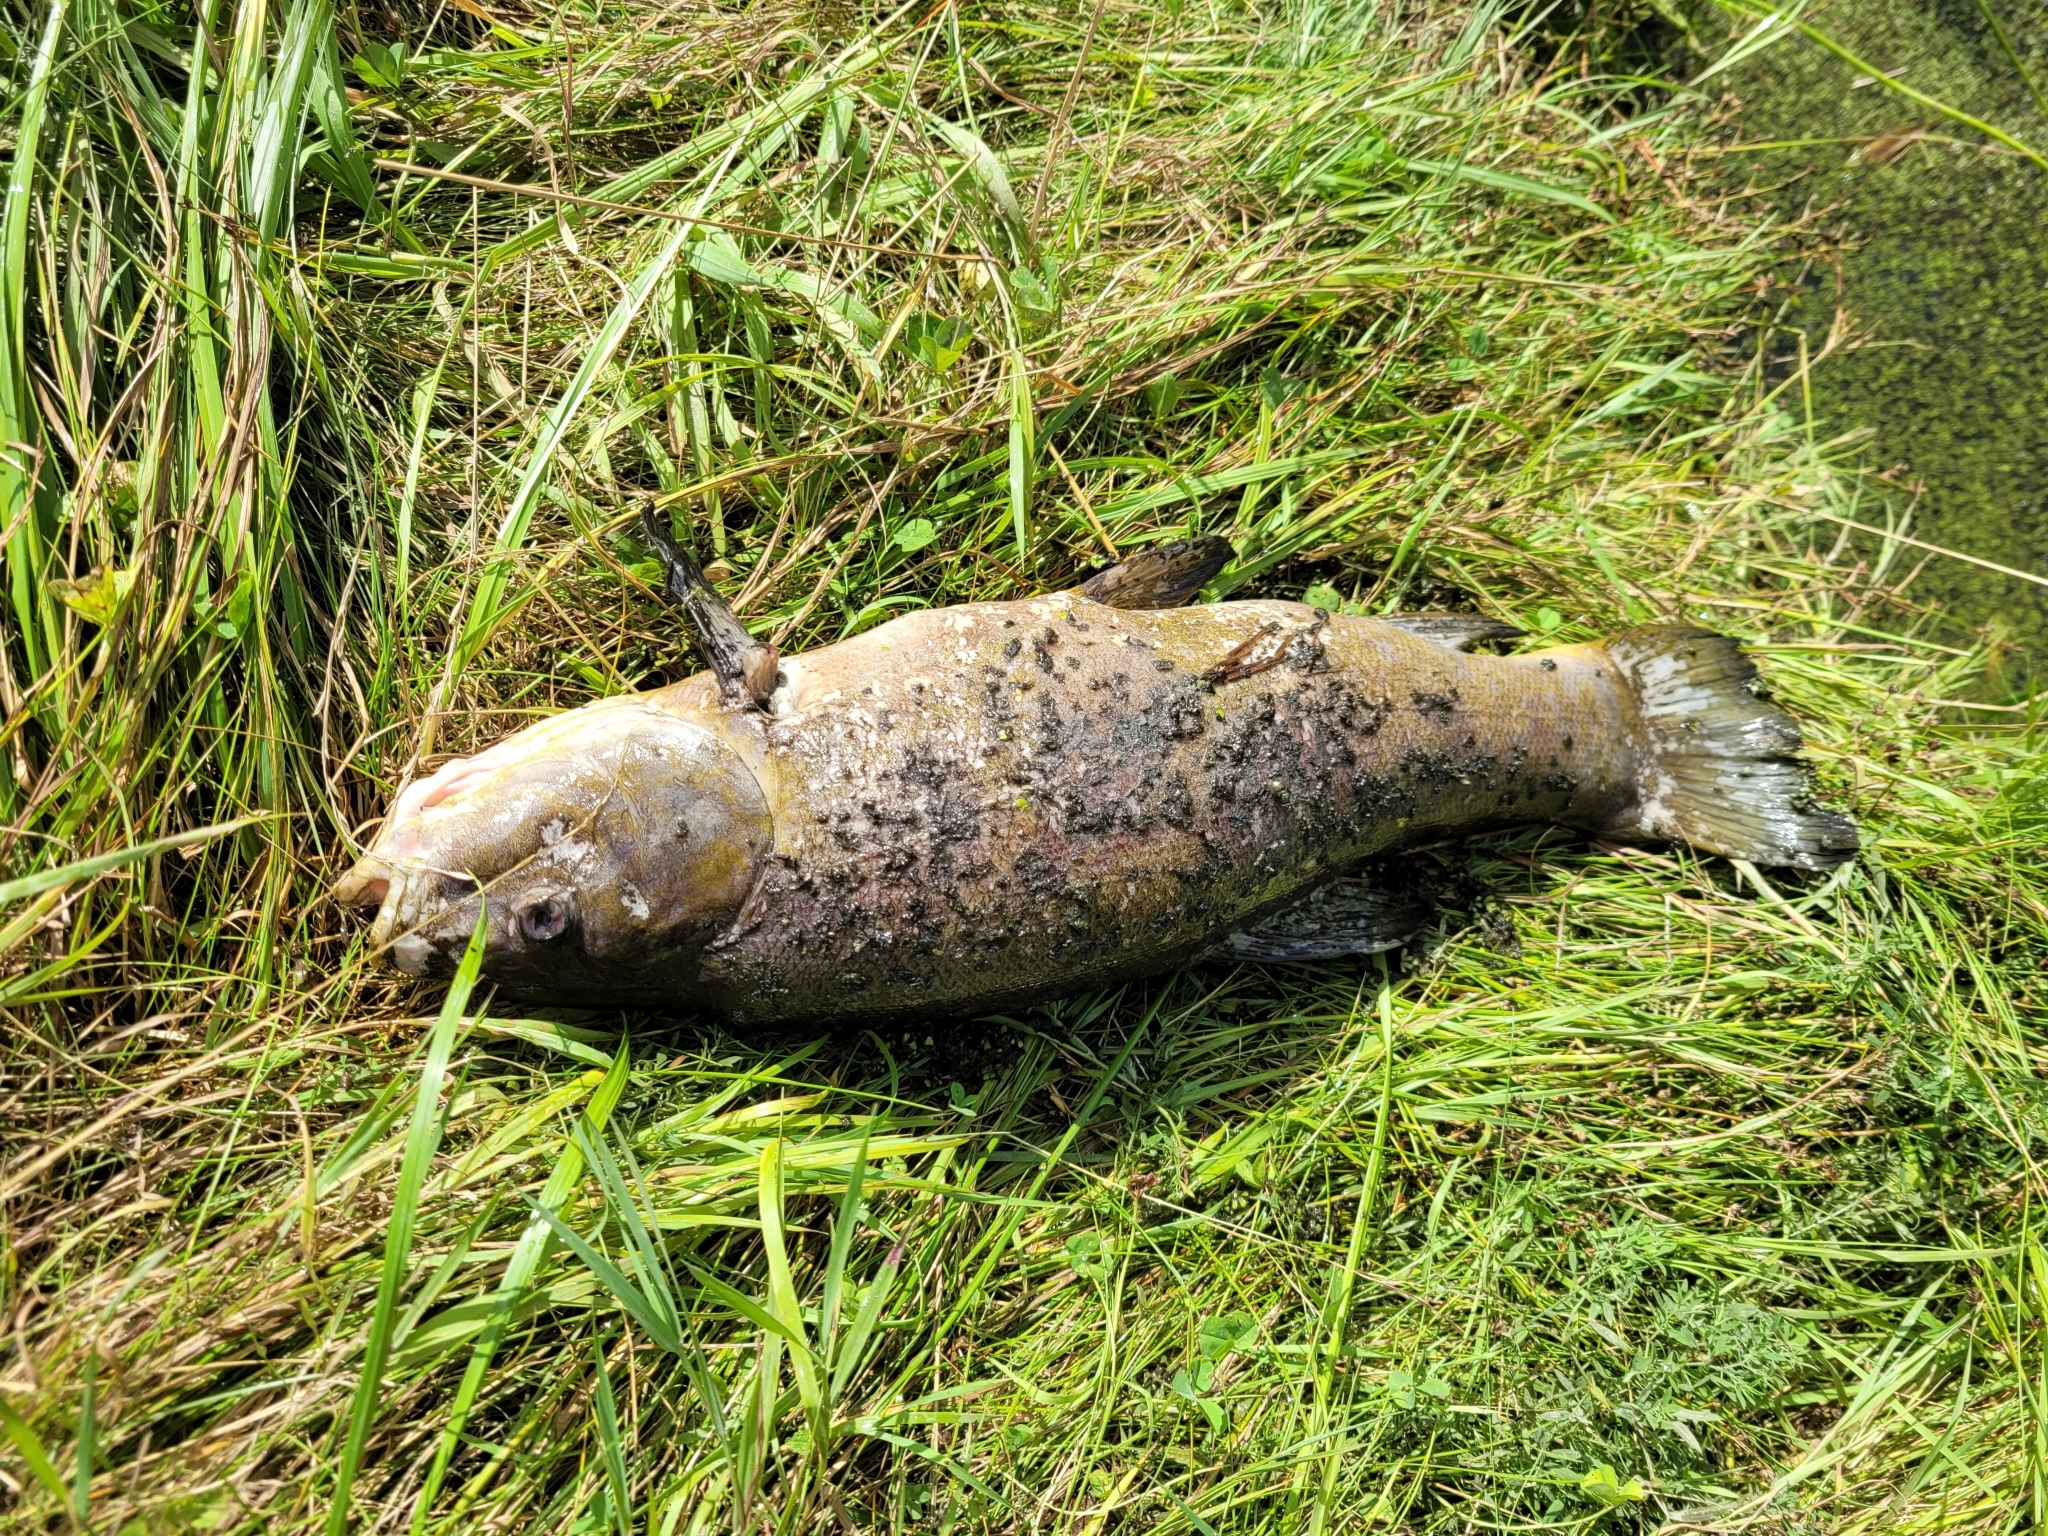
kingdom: Animalia
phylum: Chordata
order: Cypriniformes
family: Cyprinidae
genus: Tinca
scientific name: Tinca tinca
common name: Tench
